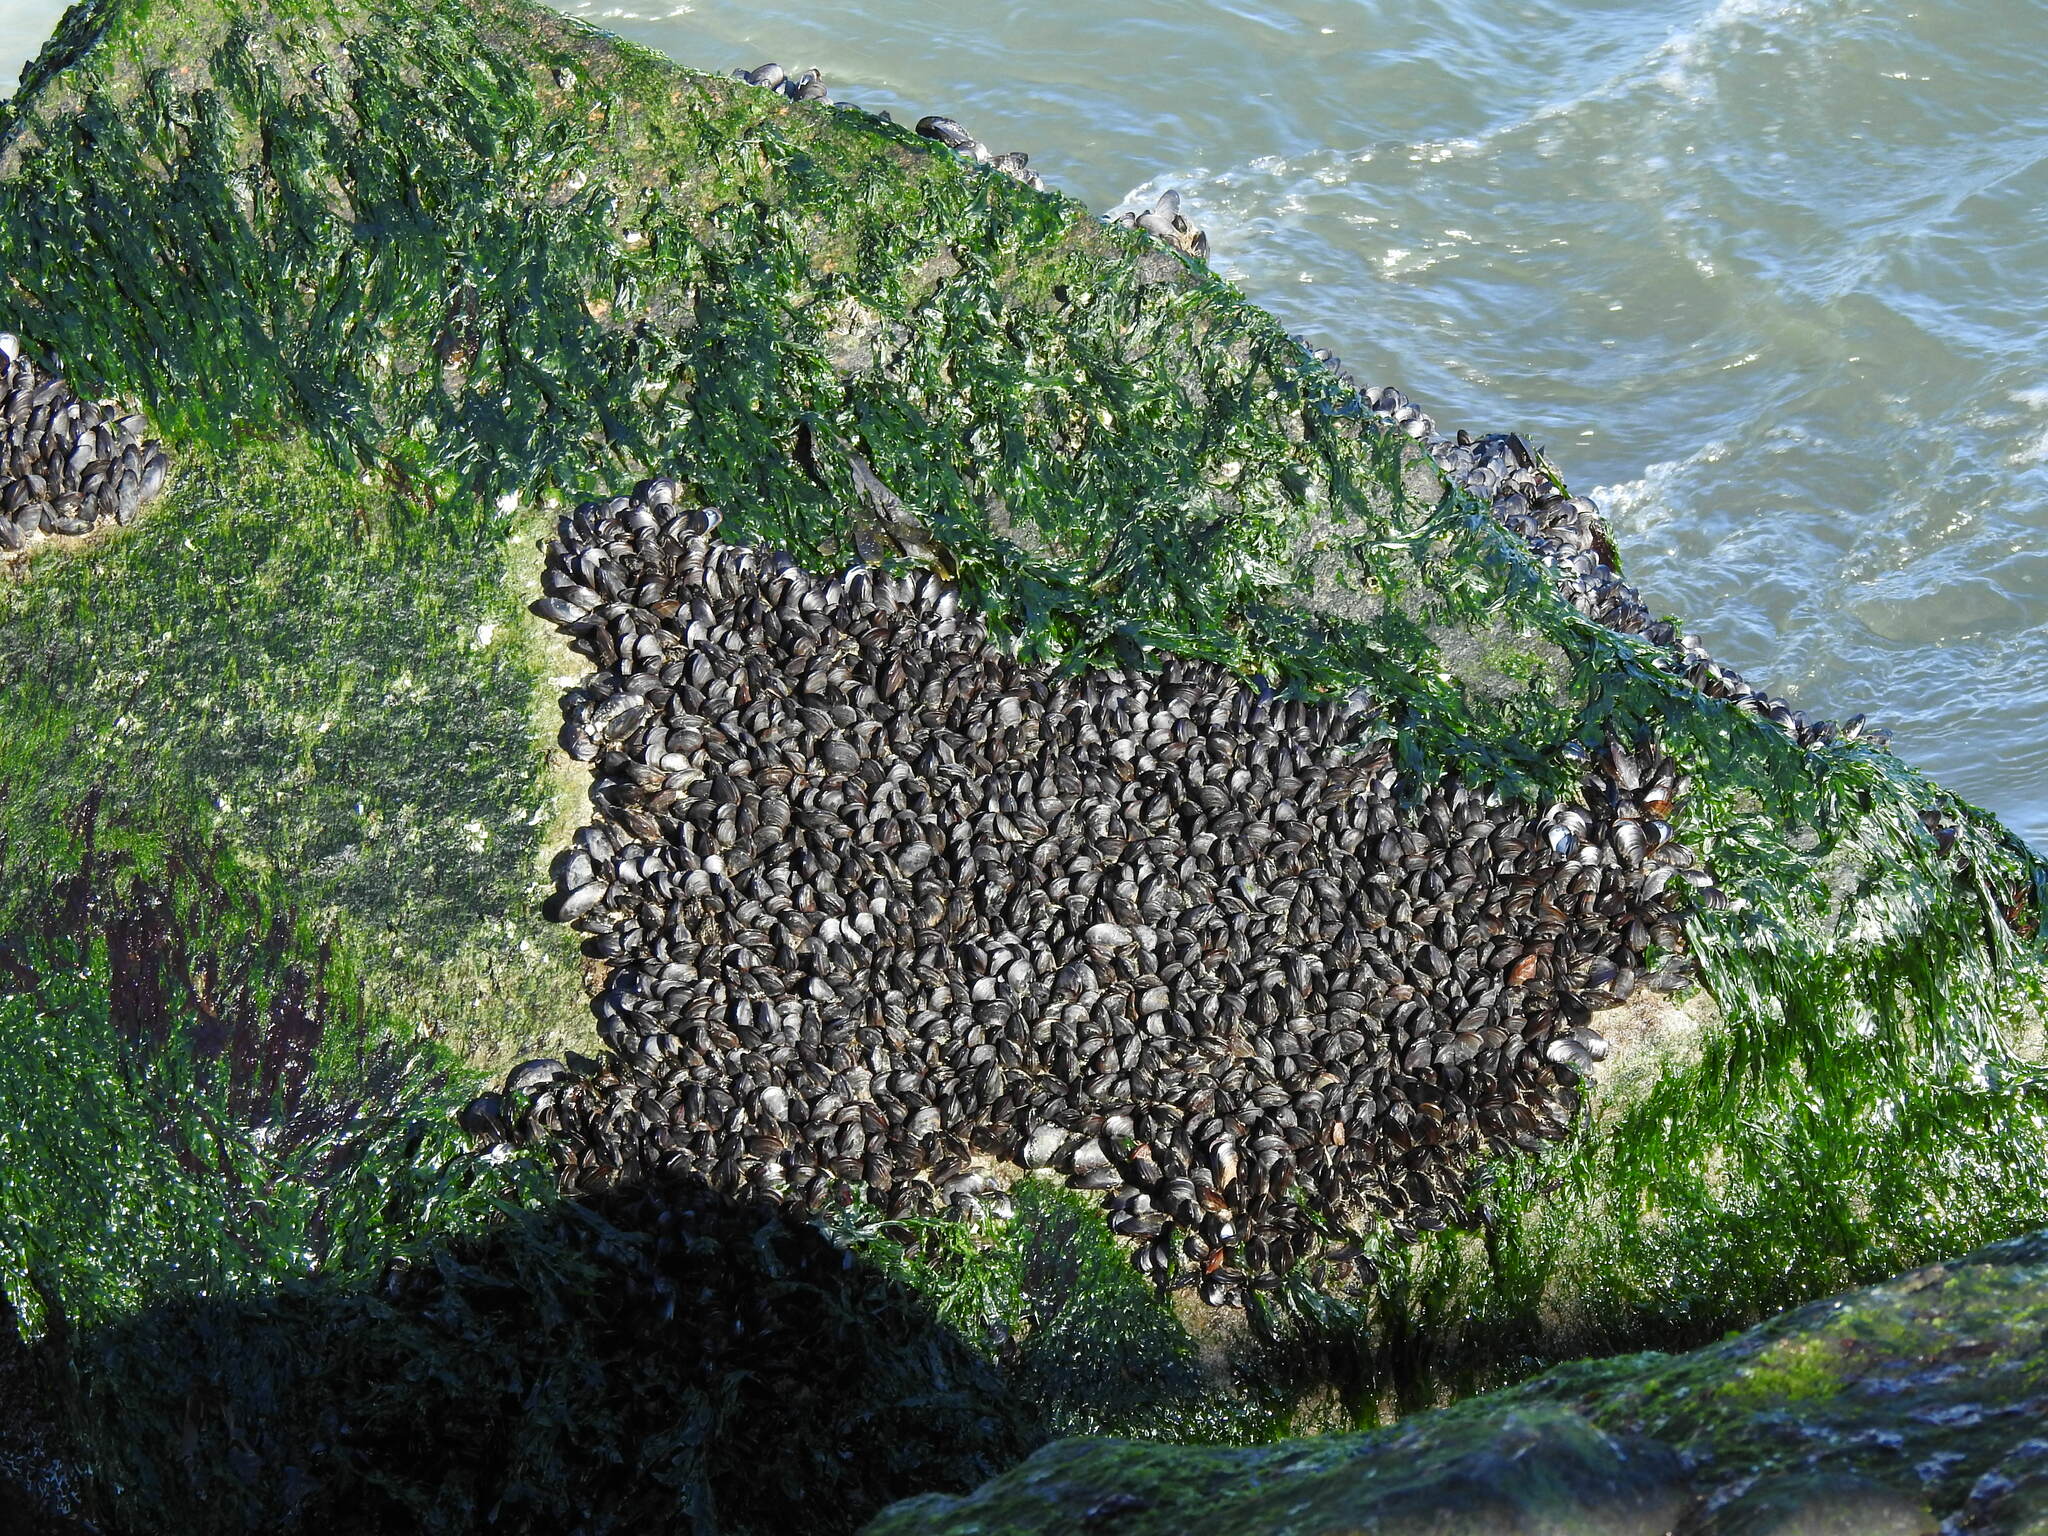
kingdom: Animalia
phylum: Mollusca
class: Bivalvia
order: Mytilida
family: Mytilidae
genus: Mytilus
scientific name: Mytilus edulis
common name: Blue mussel
